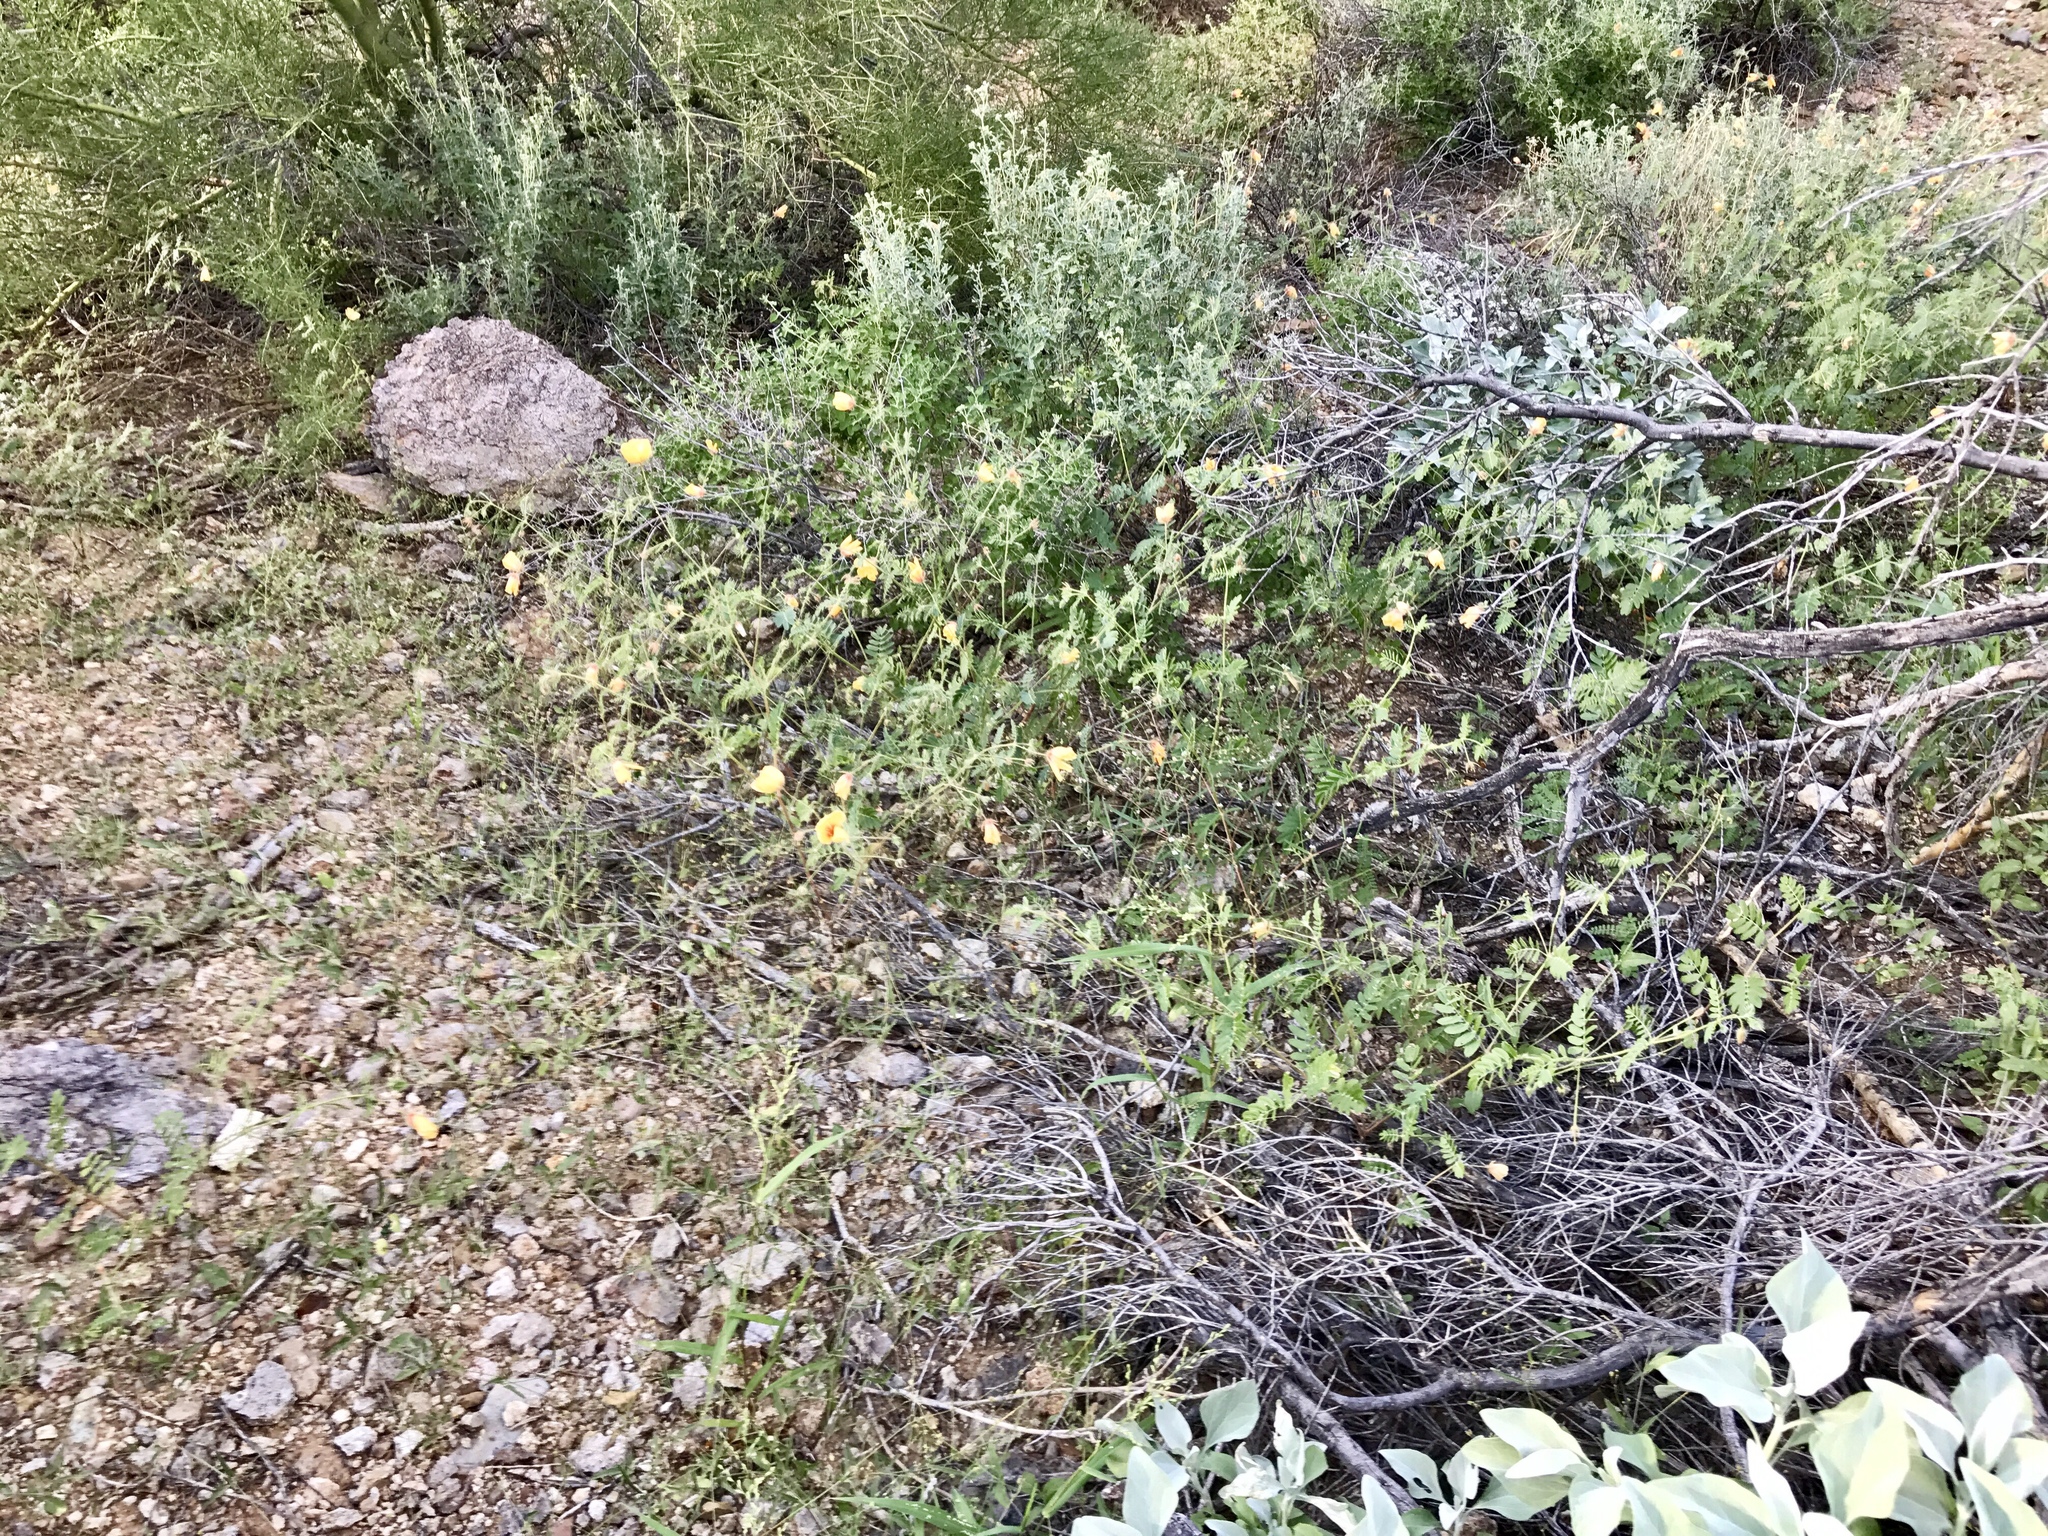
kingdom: Plantae
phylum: Tracheophyta
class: Magnoliopsida
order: Zygophyllales
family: Zygophyllaceae
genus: Kallstroemia
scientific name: Kallstroemia grandiflora
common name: Arizona-poppy
